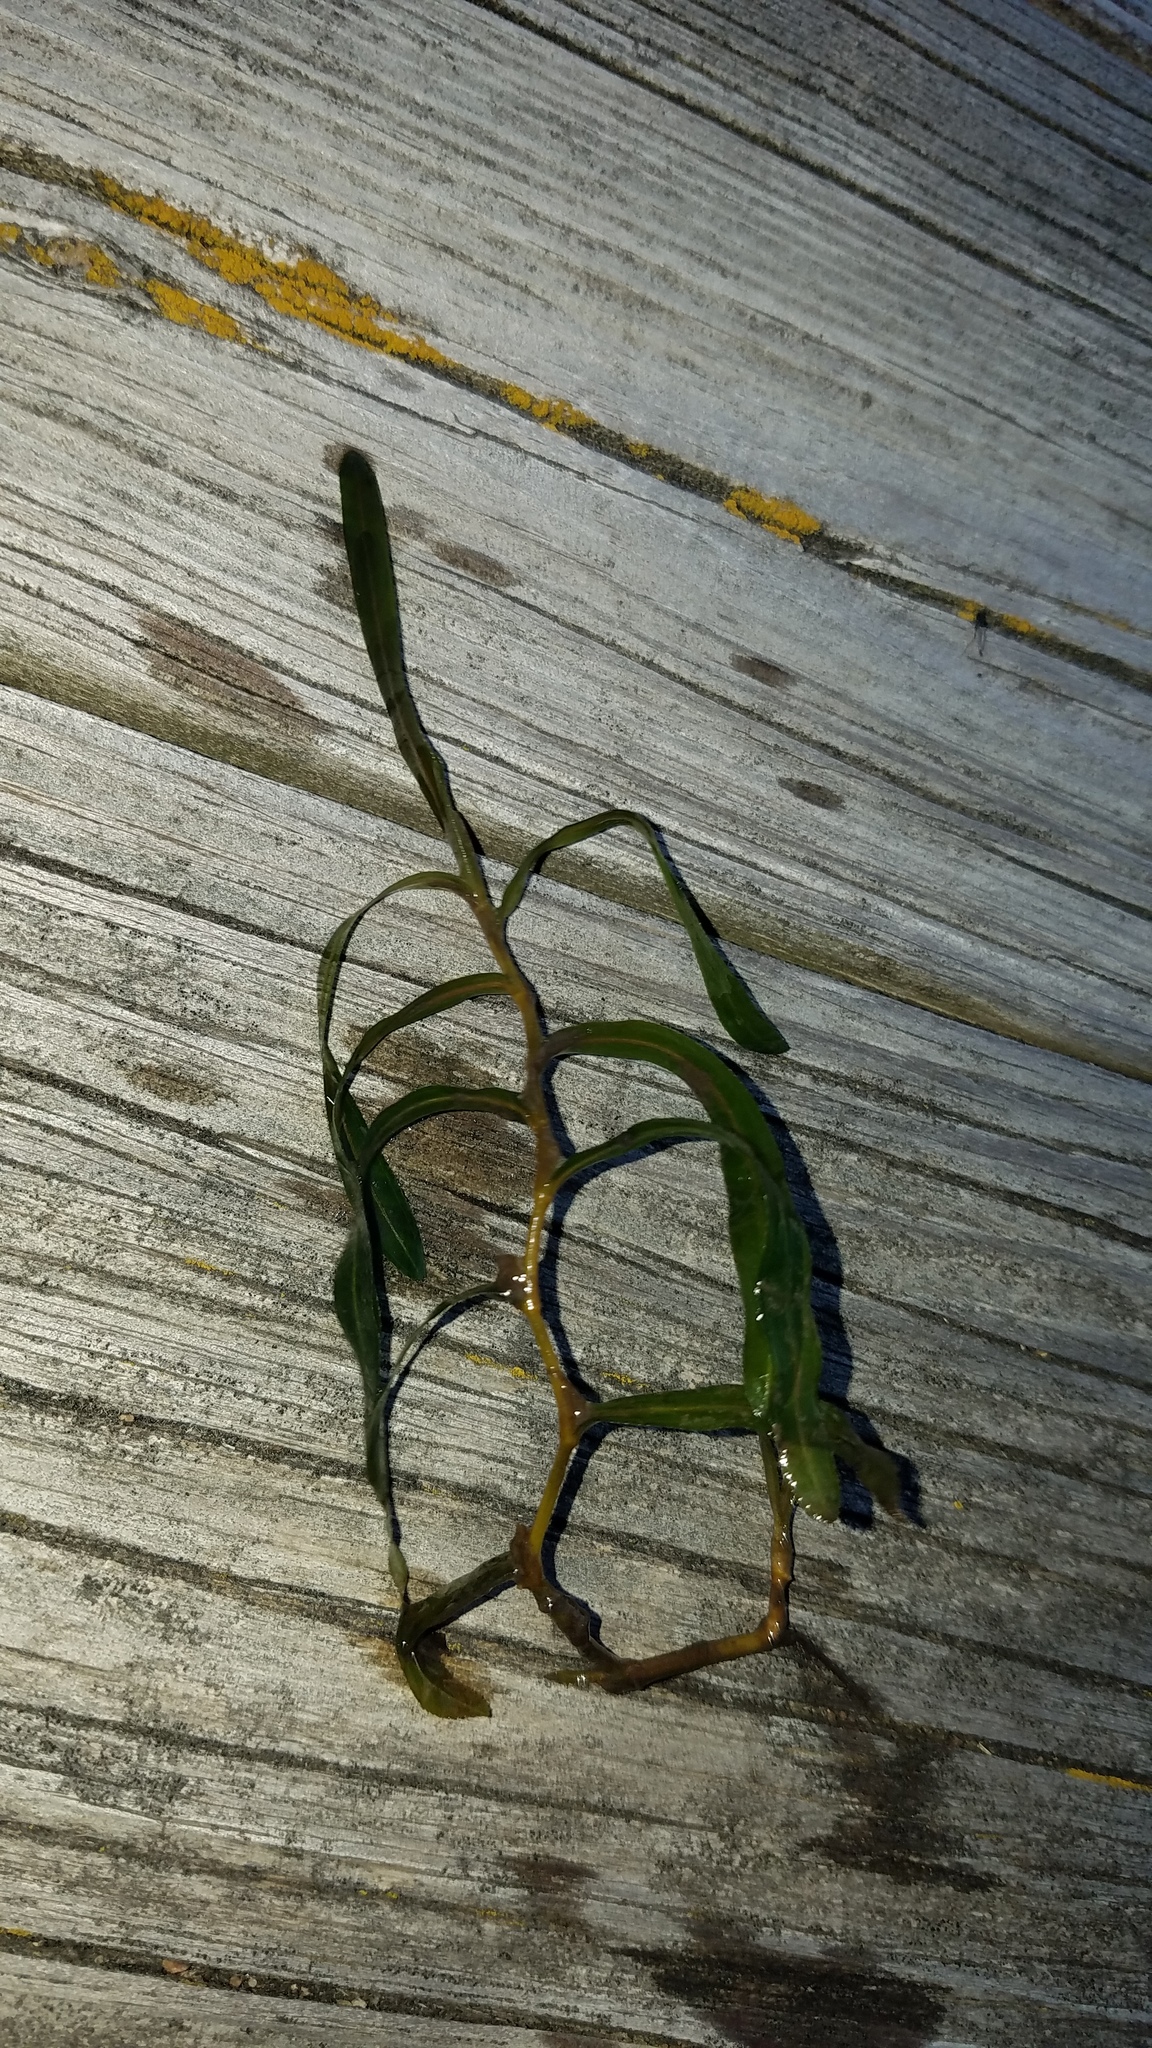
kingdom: Plantae
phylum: Tracheophyta
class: Liliopsida
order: Alismatales
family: Potamogetonaceae
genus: Potamogeton
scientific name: Potamogeton crispus
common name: Curled pondweed
